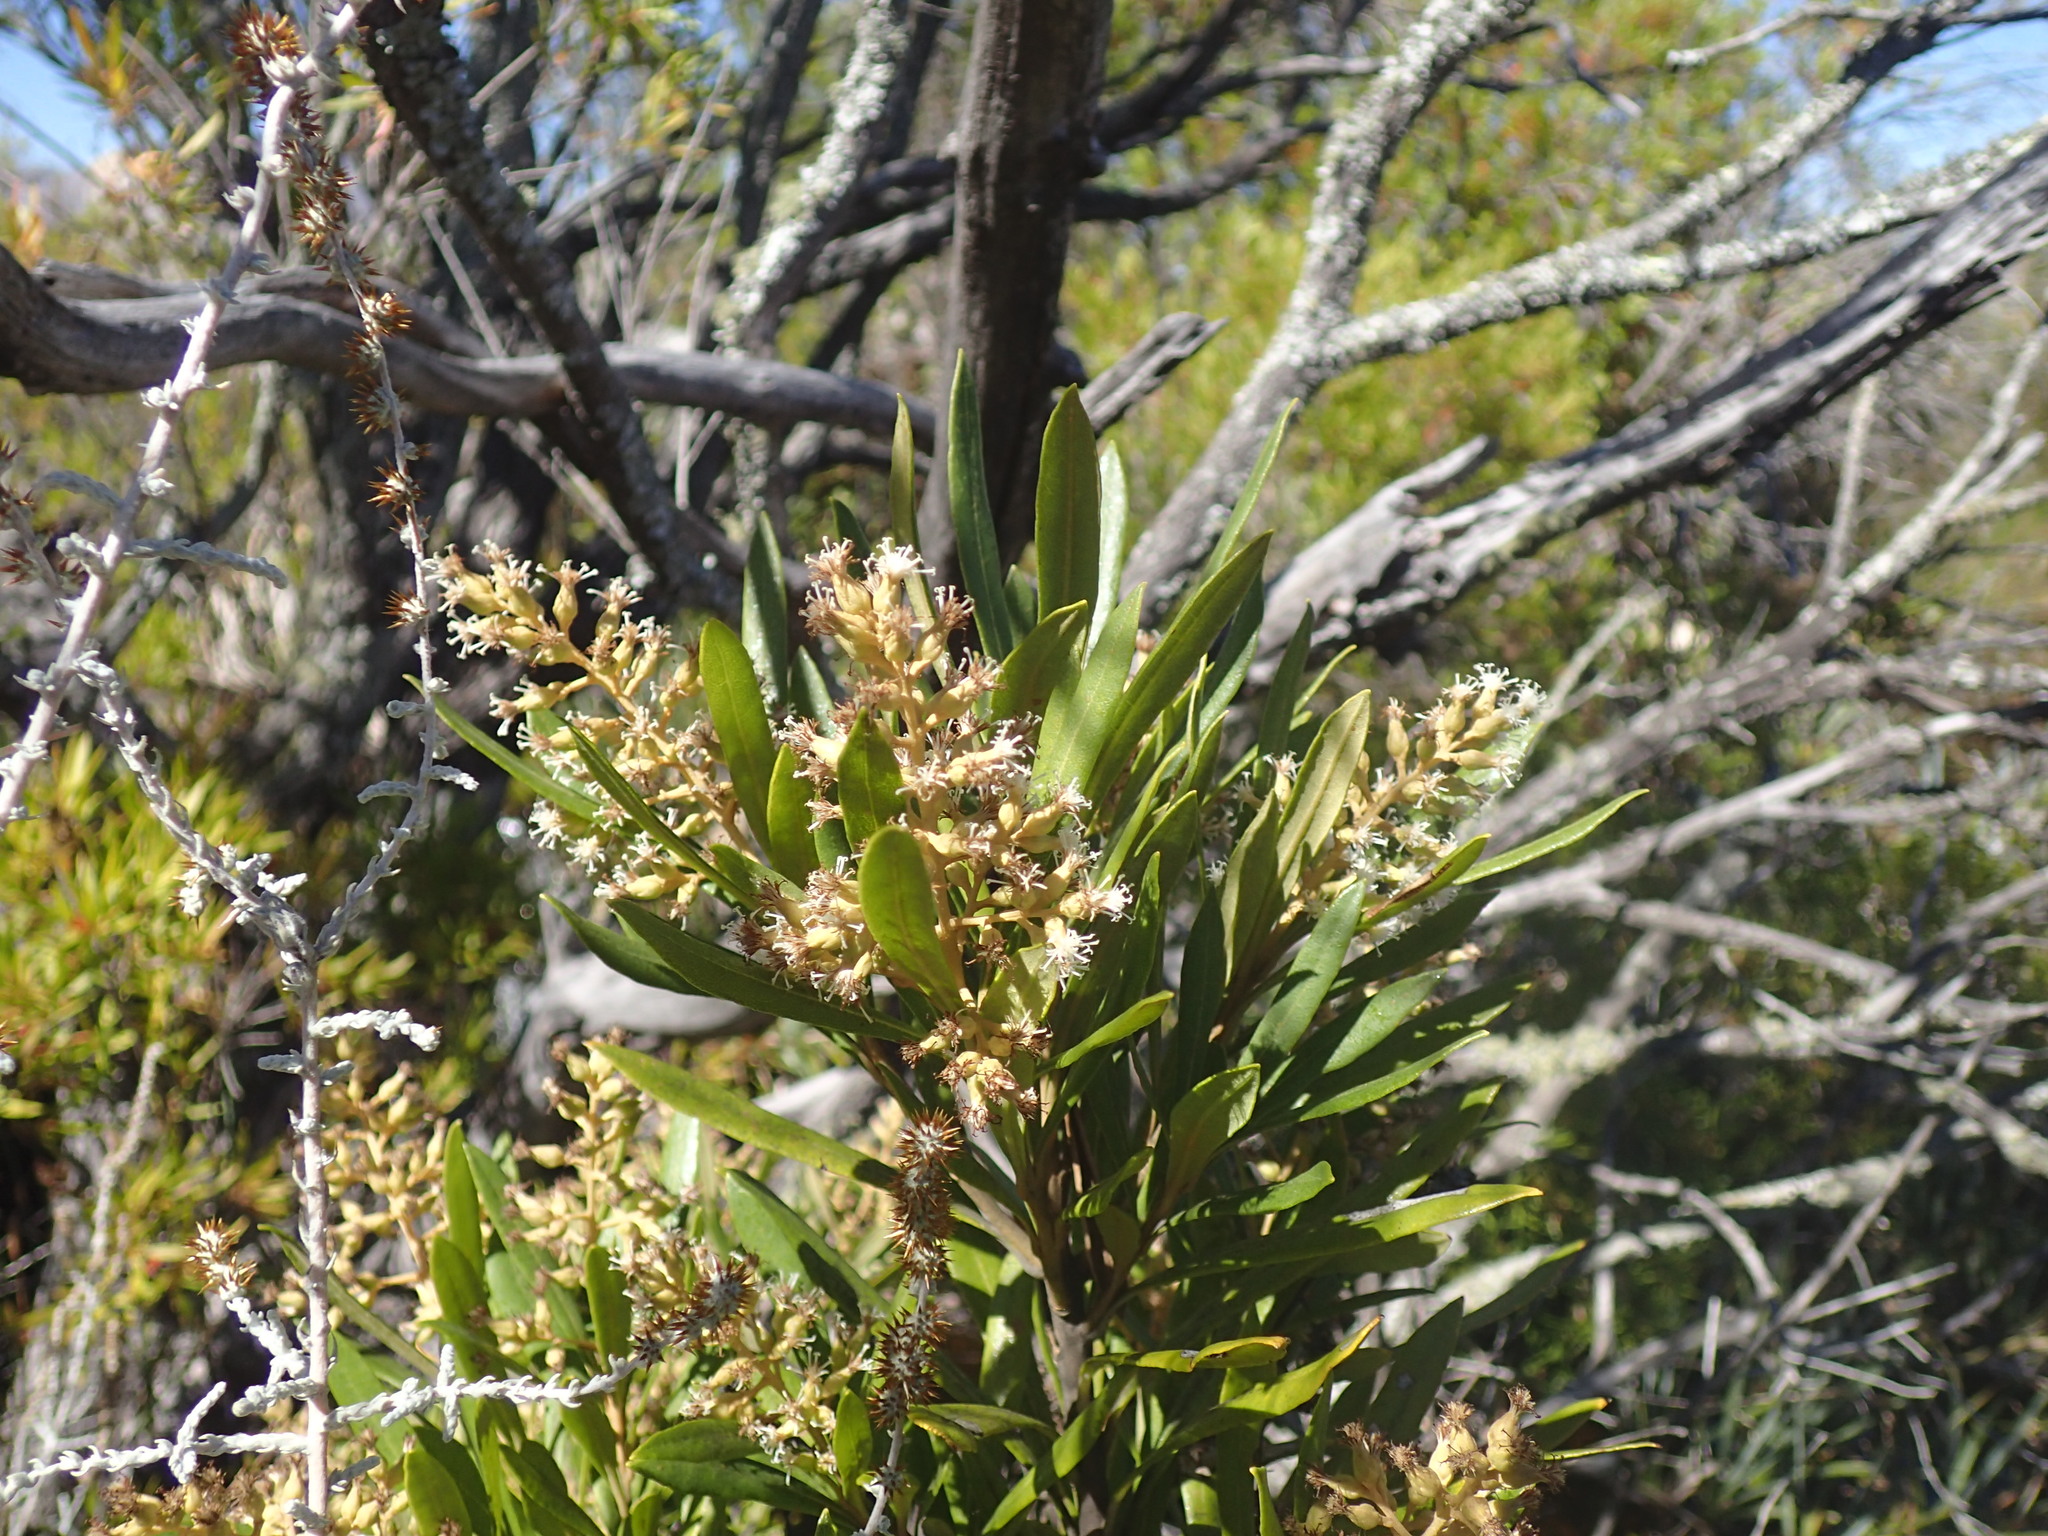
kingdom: Plantae
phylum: Tracheophyta
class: Magnoliopsida
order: Asterales
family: Asteraceae
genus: Brachylaena
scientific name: Brachylaena neriifolia
